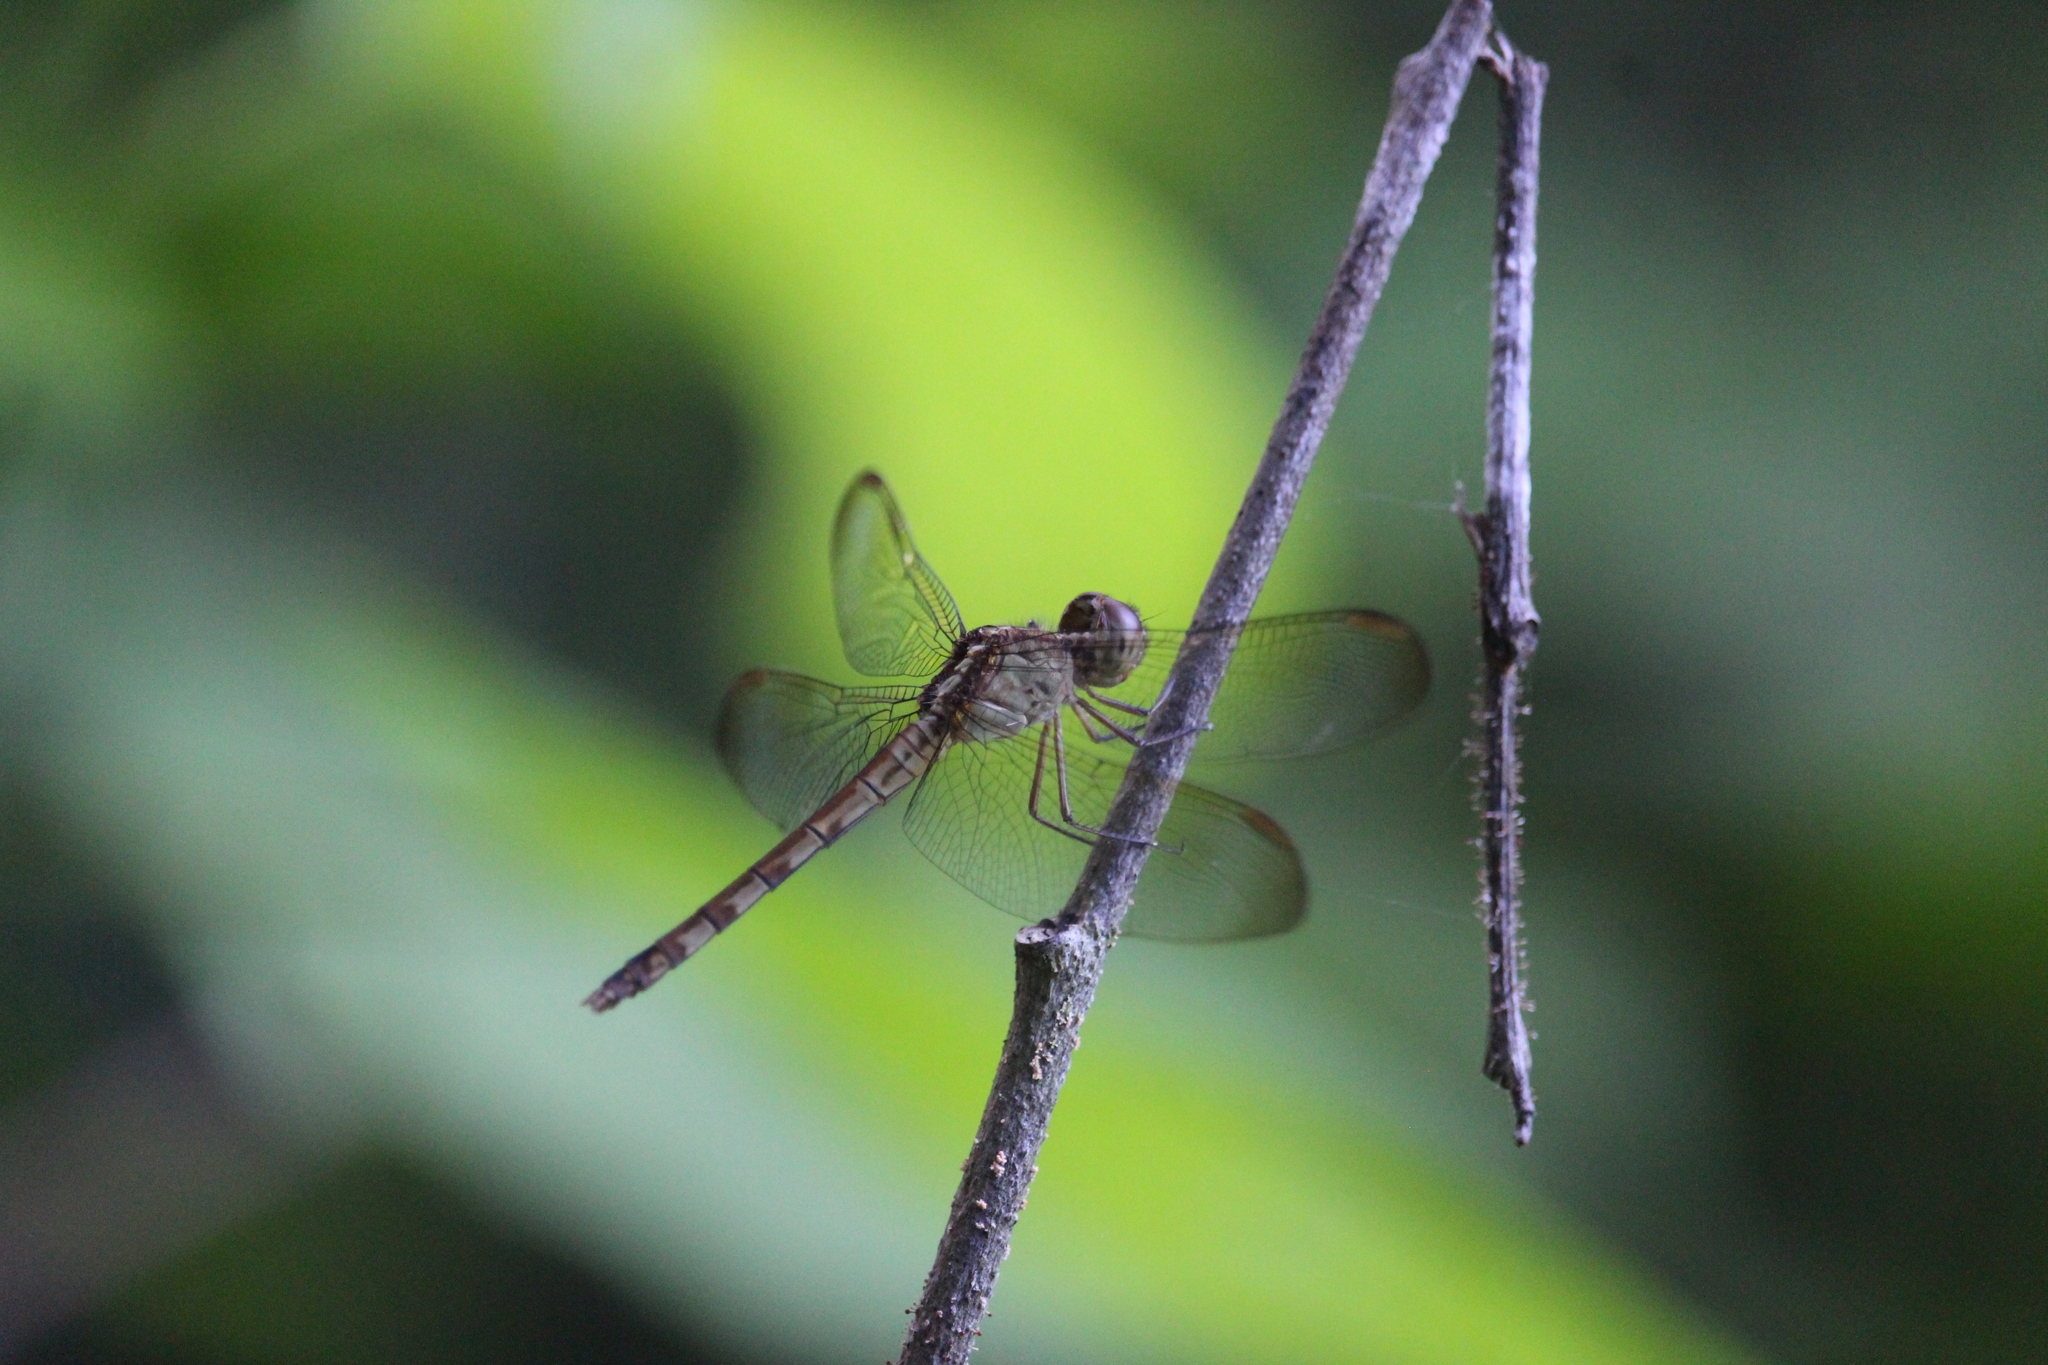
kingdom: Animalia
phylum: Arthropoda
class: Insecta
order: Odonata
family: Libellulidae
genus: Erythrodiplax
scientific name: Erythrodiplax umbrata
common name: Band-winged dragonlet
